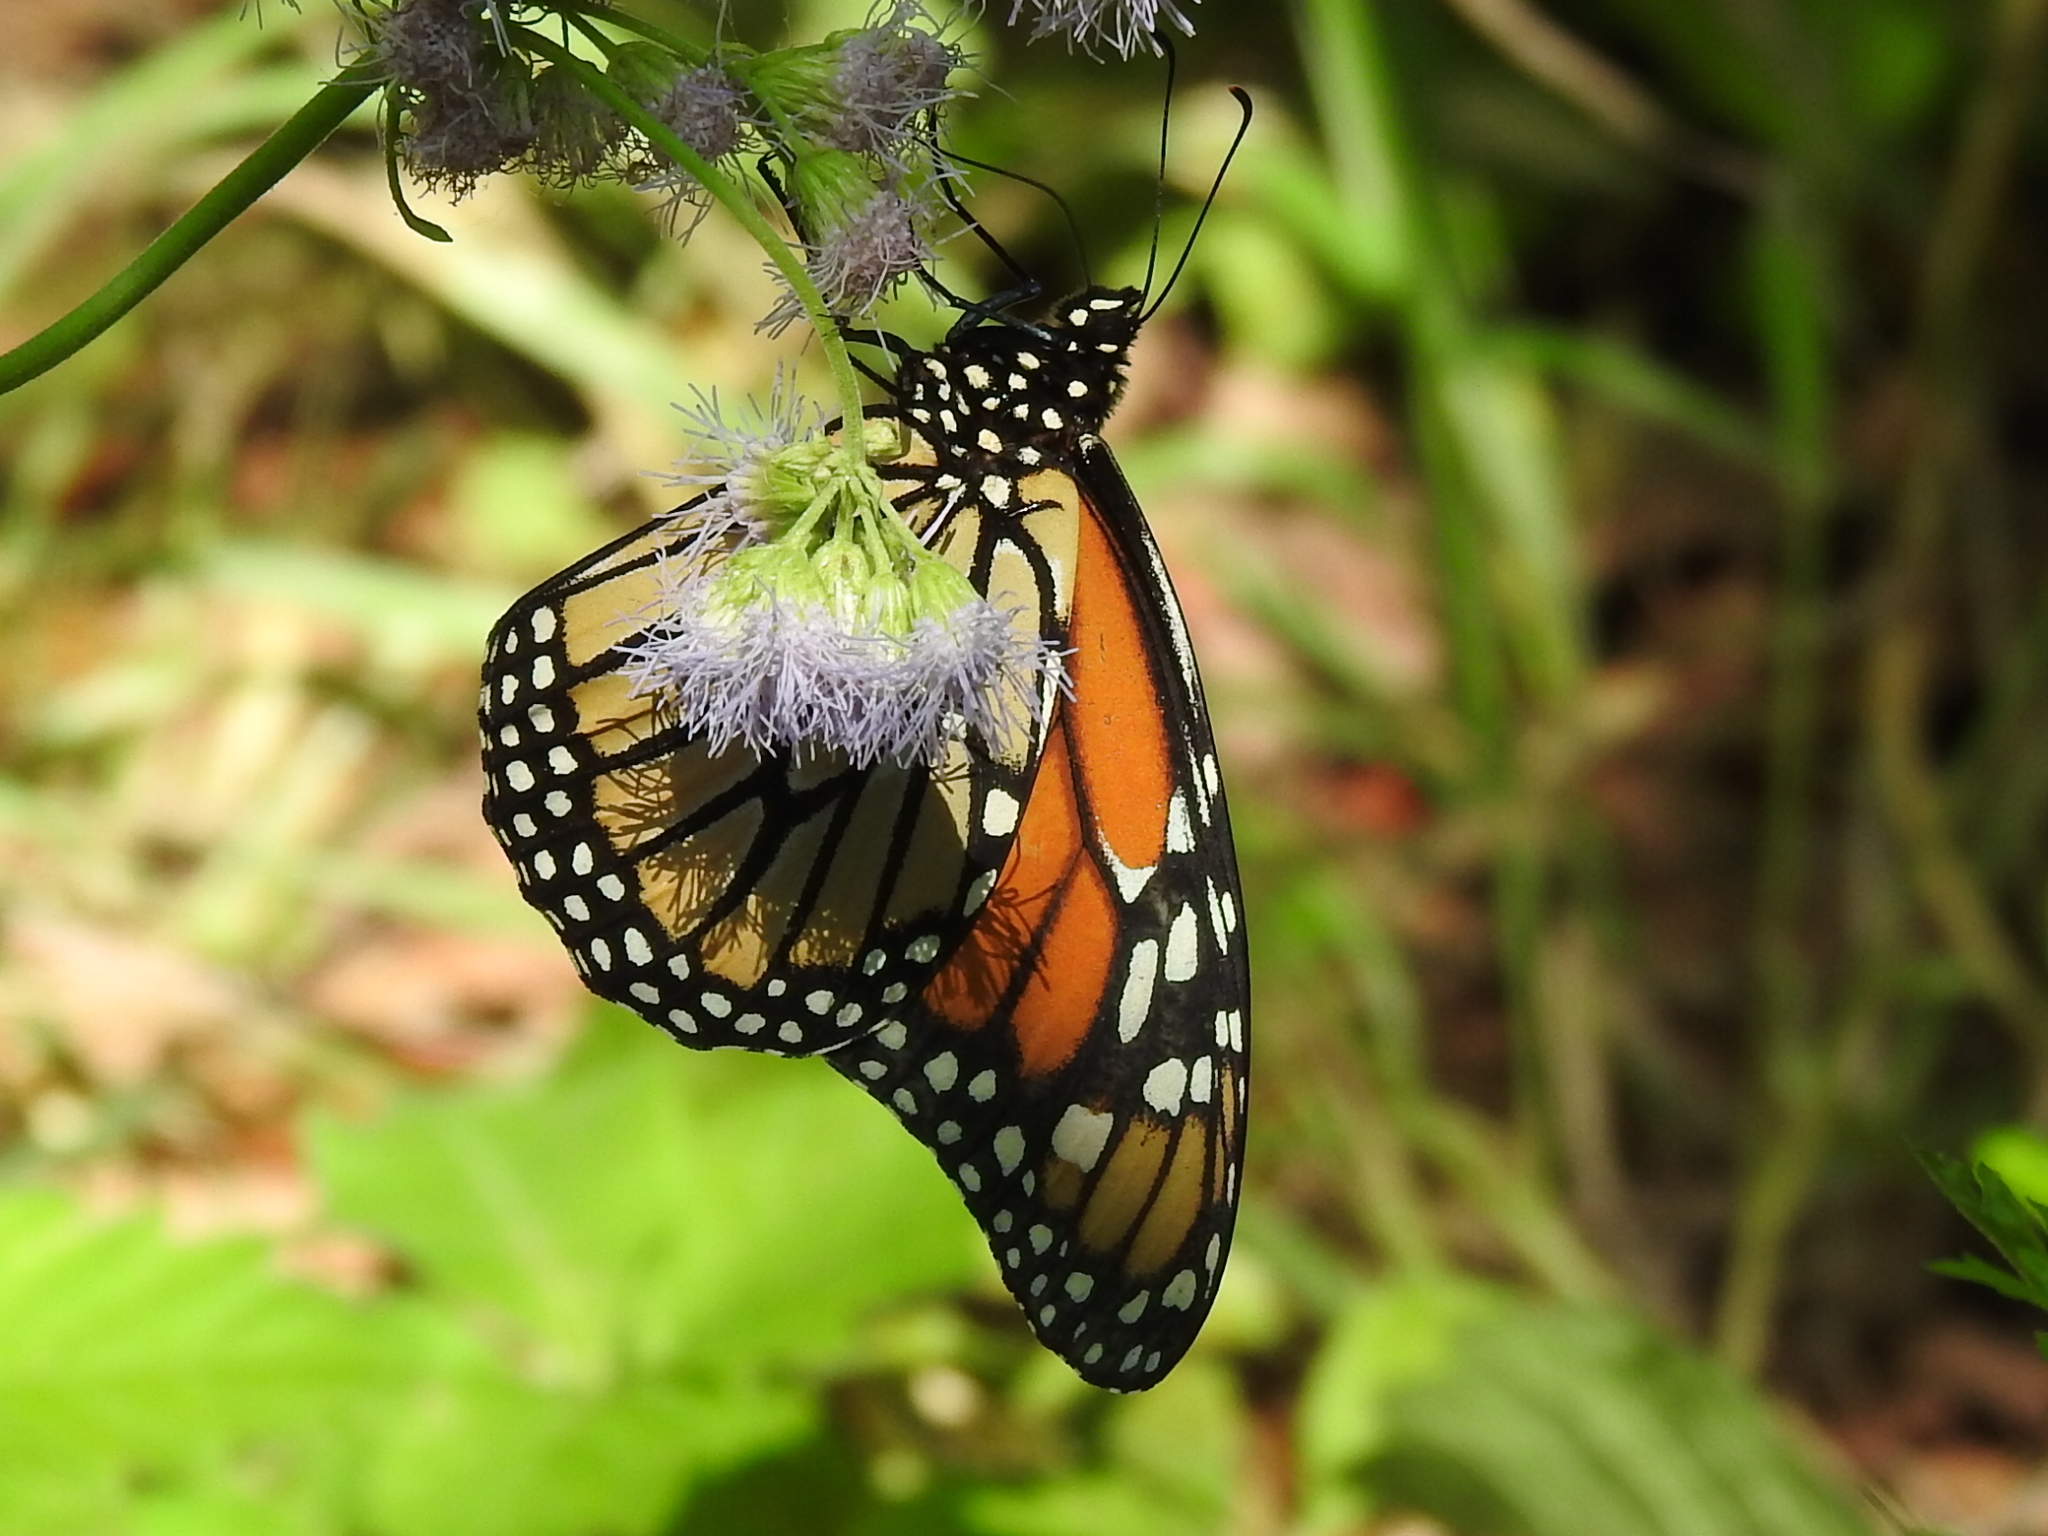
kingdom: Animalia
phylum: Arthropoda
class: Insecta
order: Lepidoptera
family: Nymphalidae
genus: Danaus
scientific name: Danaus plexippus
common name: Monarch
